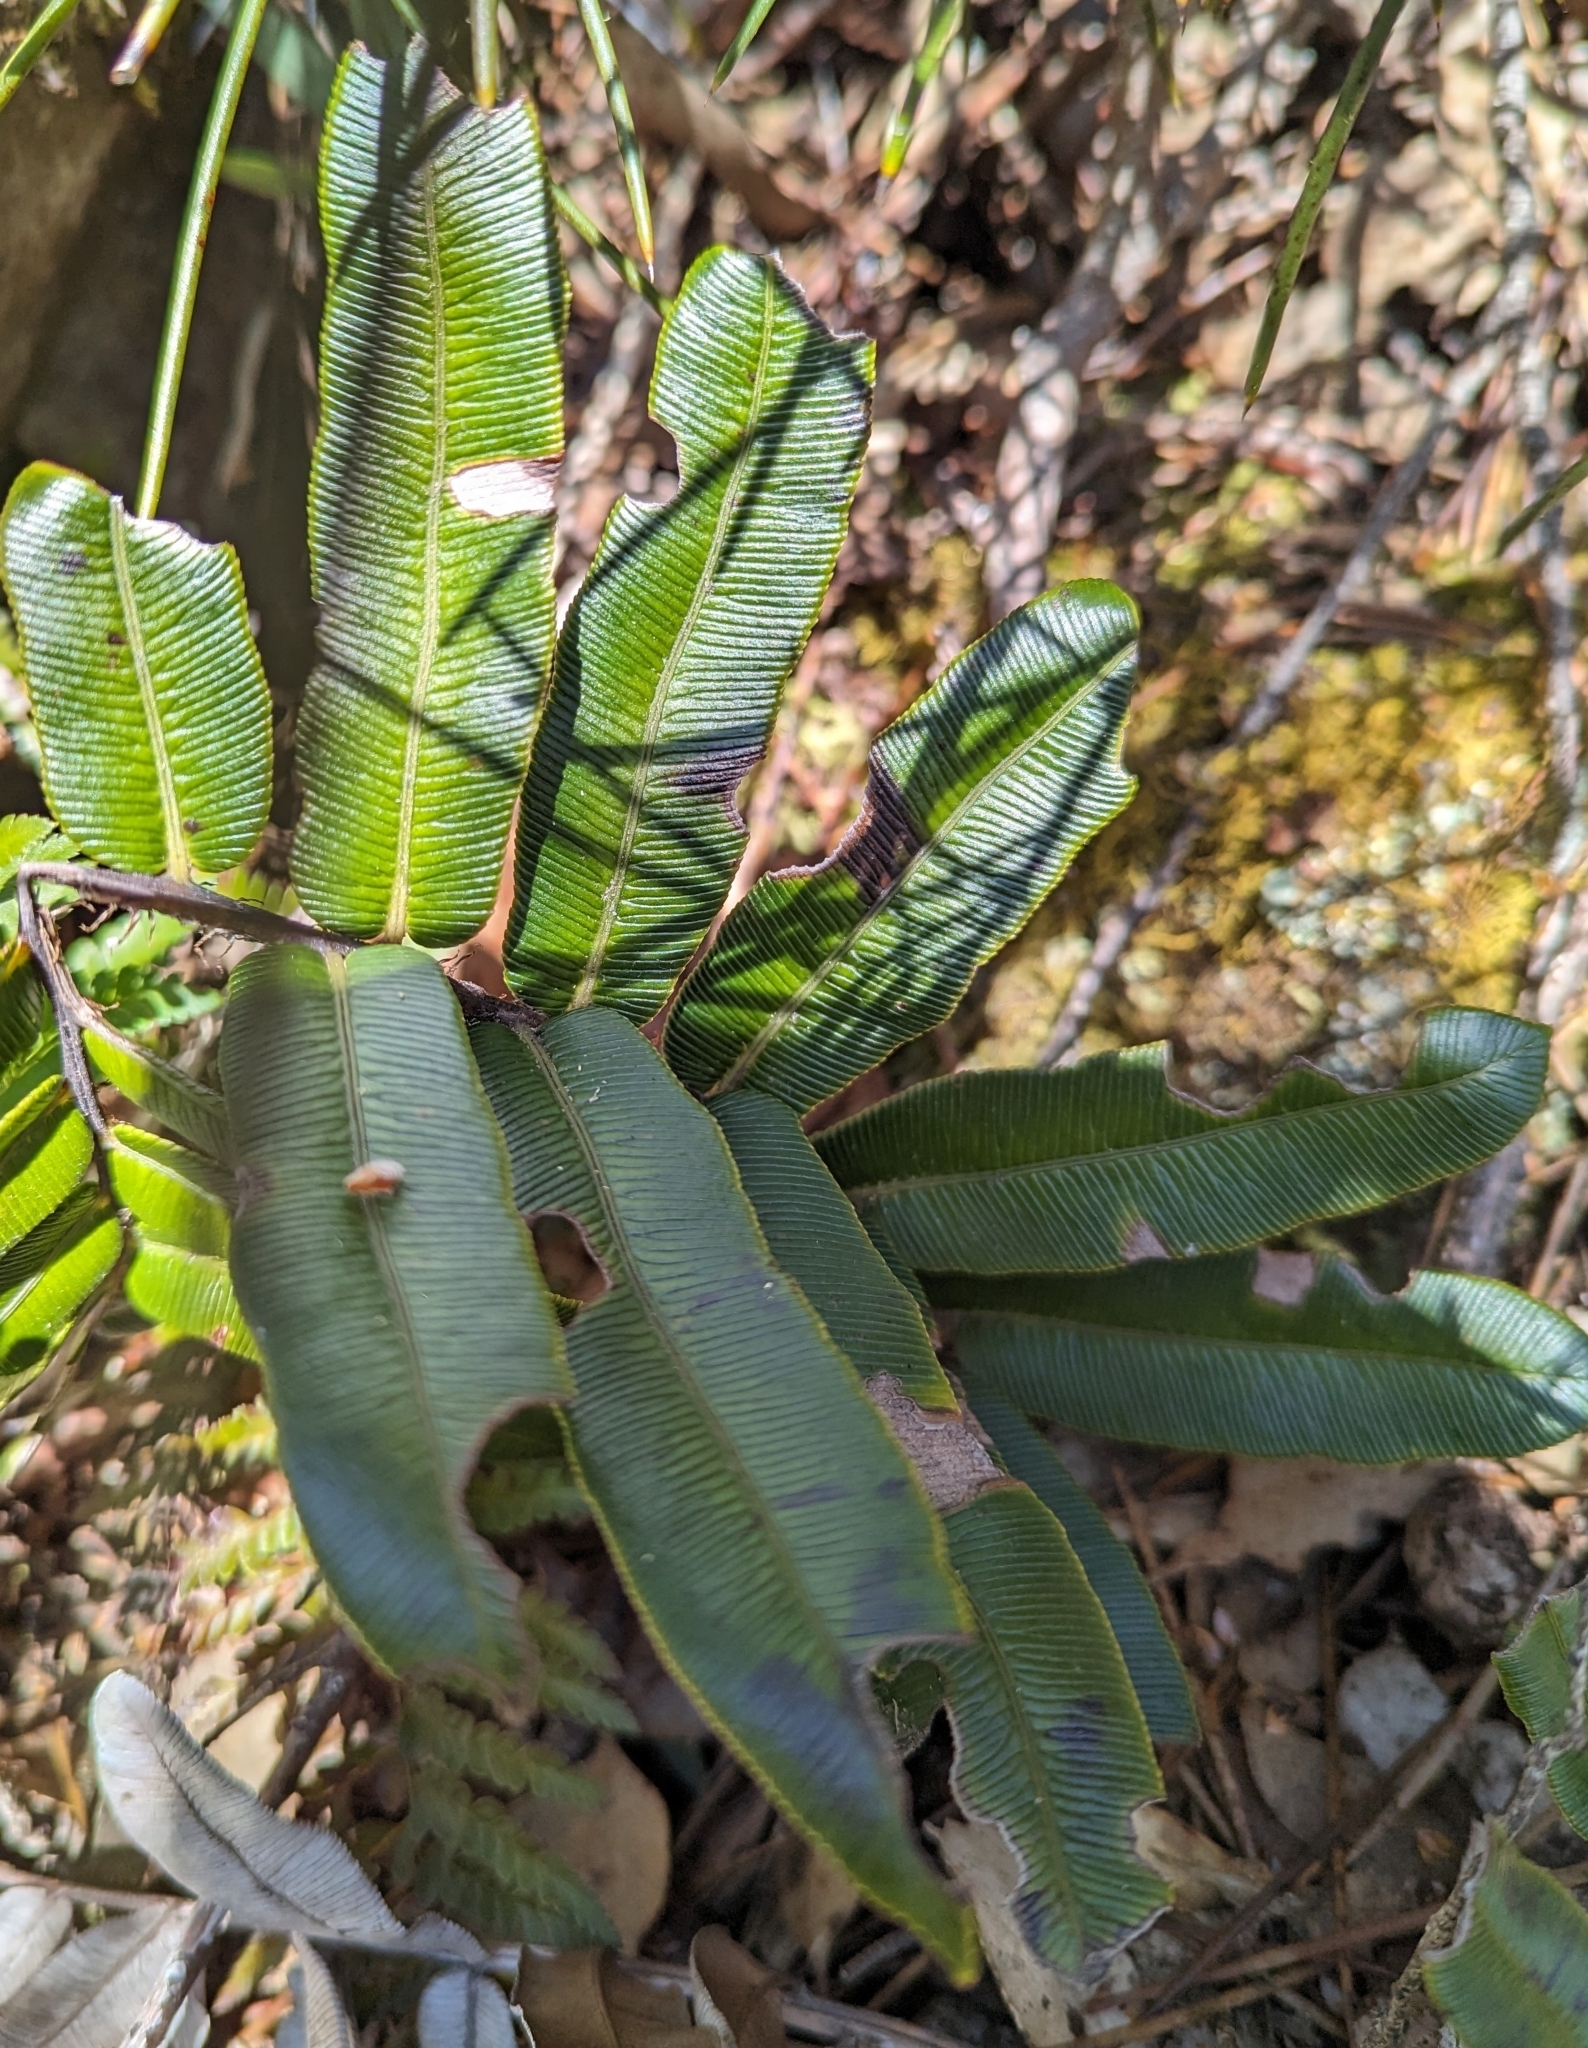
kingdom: Plantae
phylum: Tracheophyta
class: Polypodiopsida
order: Polypodiales
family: Blechnaceae
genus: Parablechnum
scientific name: Parablechnum wattsii
